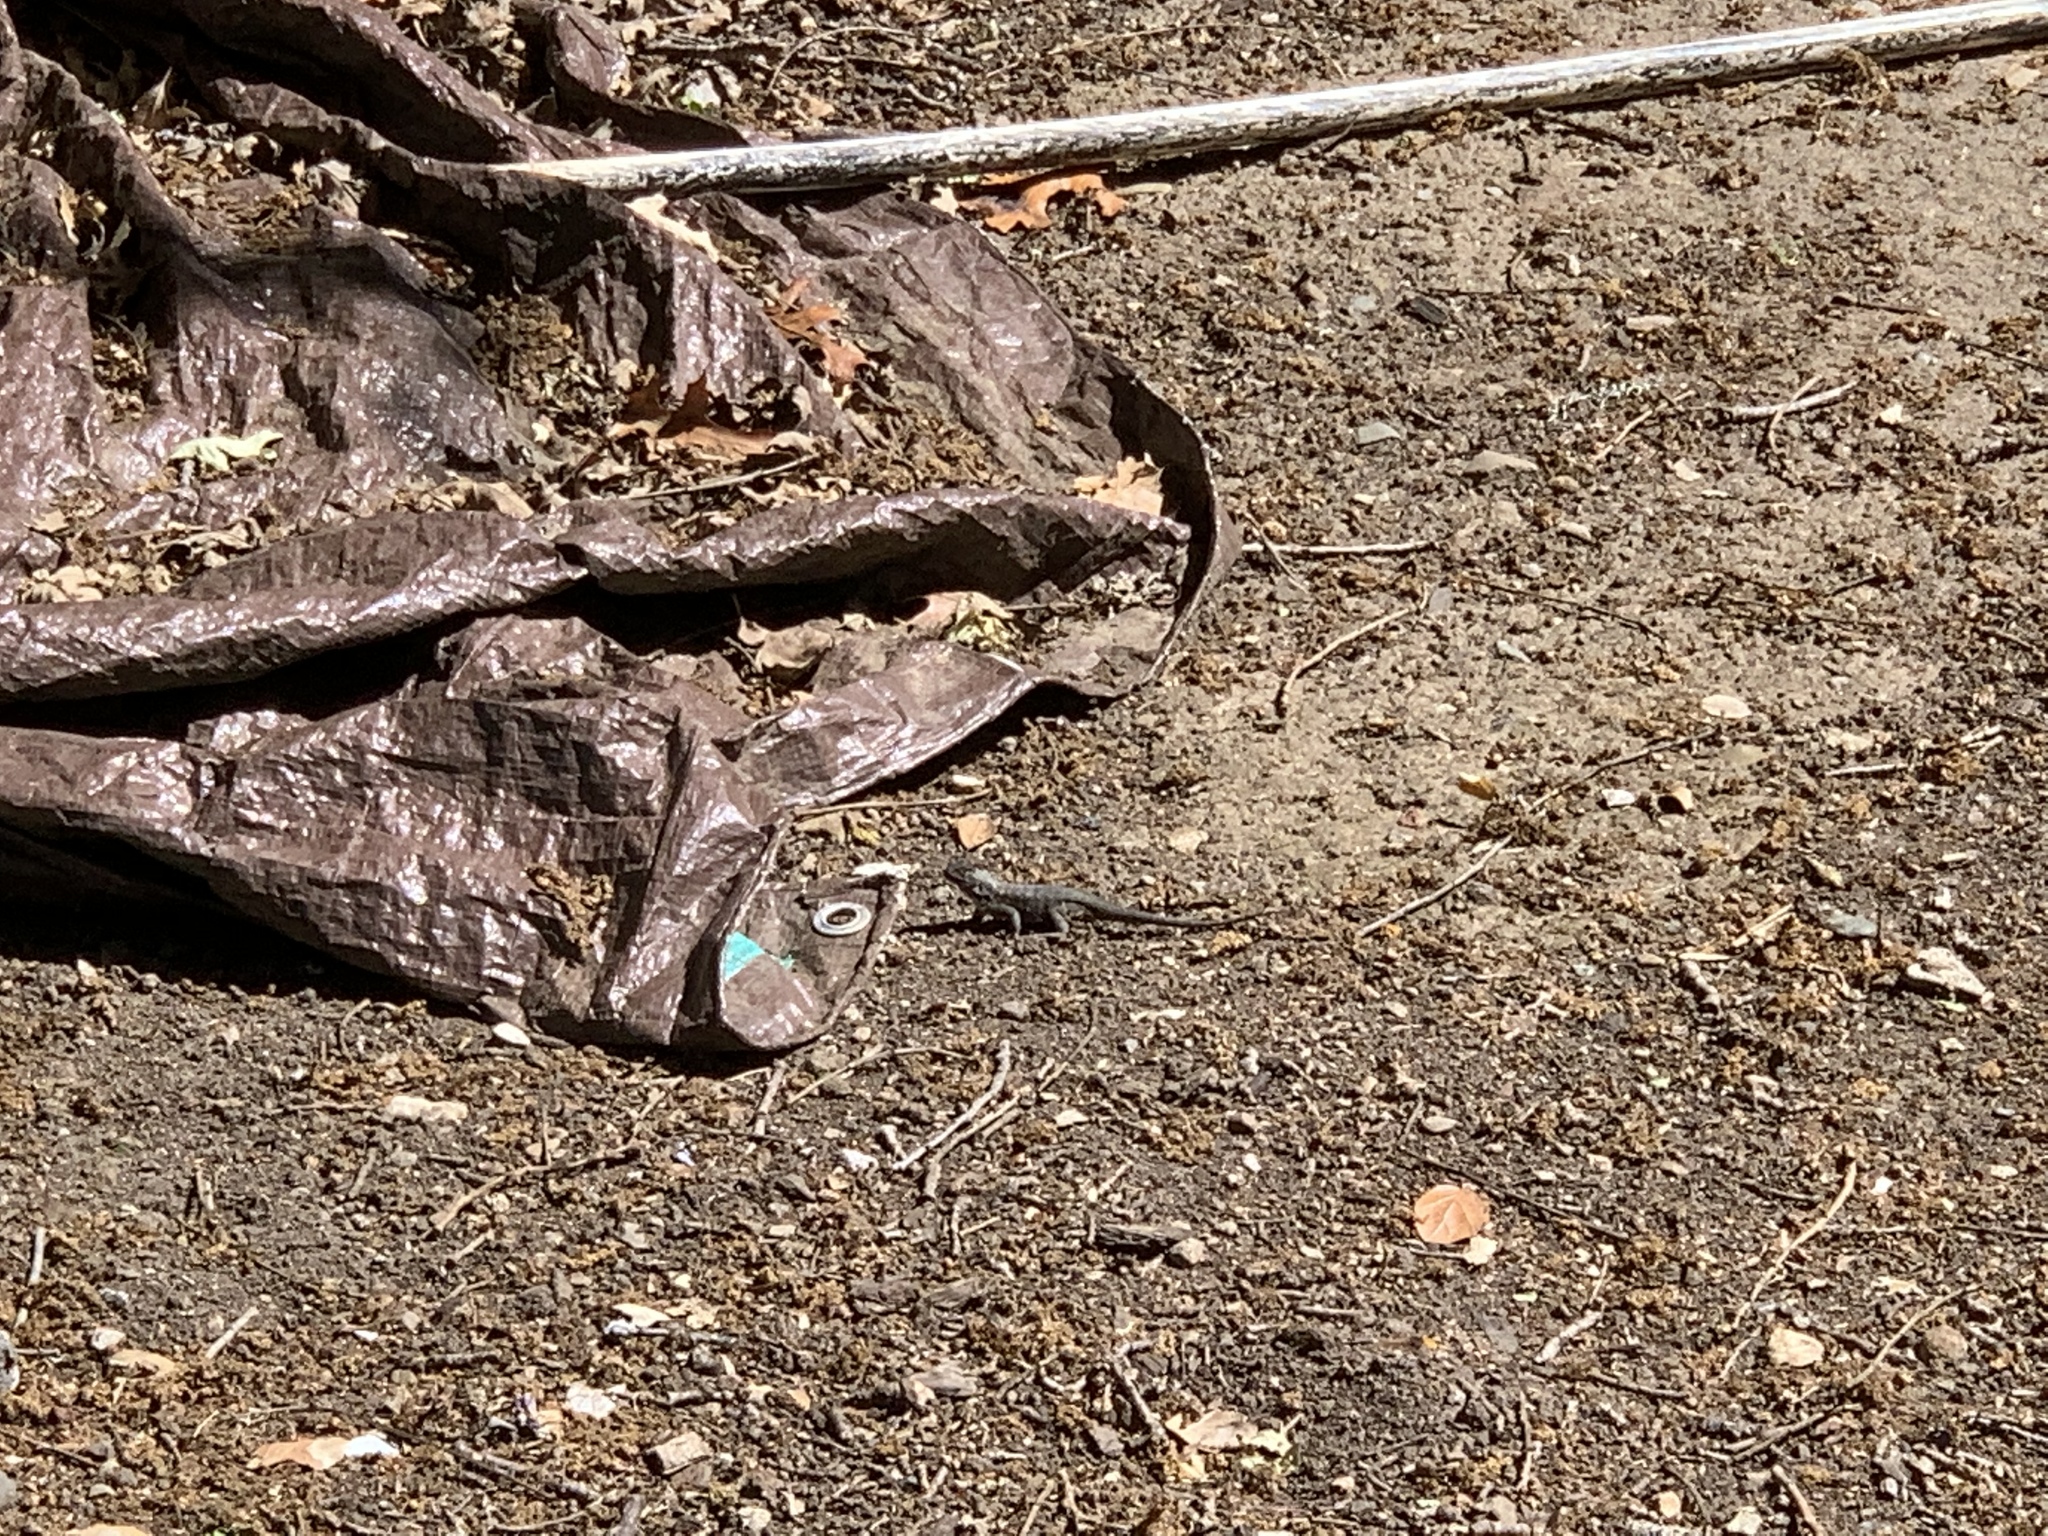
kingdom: Animalia
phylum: Chordata
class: Squamata
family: Phrynosomatidae
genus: Sceloporus
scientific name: Sceloporus occidentalis
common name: Western fence lizard
